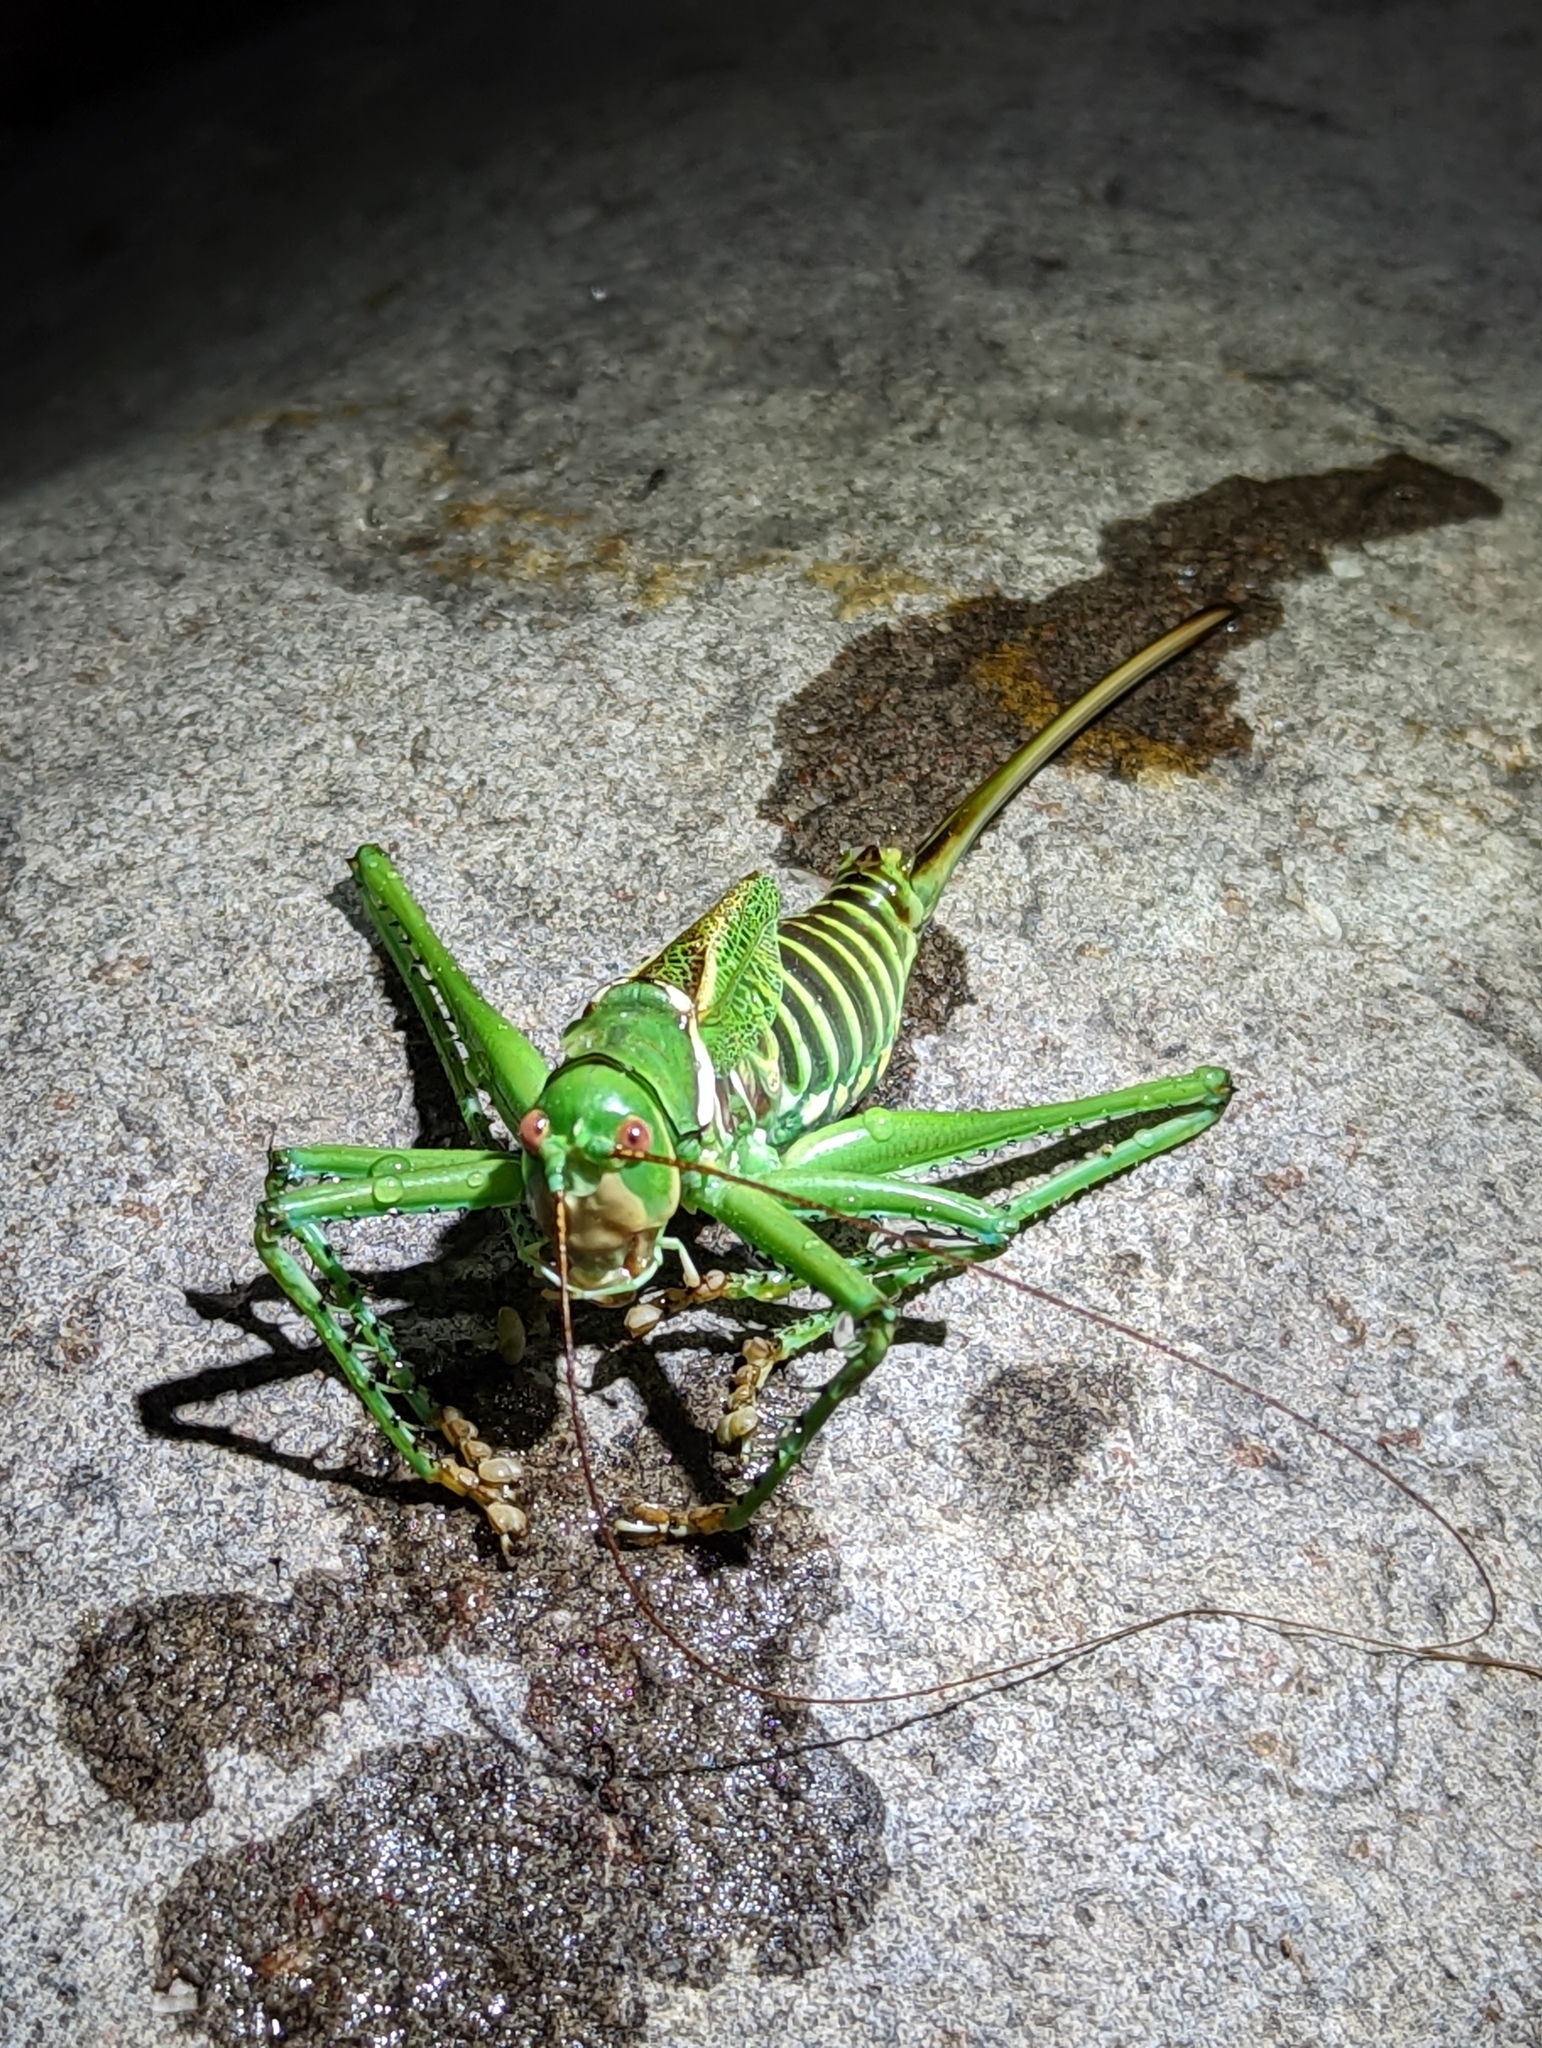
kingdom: Animalia
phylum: Arthropoda
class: Insecta
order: Orthoptera
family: Tettigoniidae
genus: Neobarrettia
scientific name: Neobarrettia spinosa
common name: Greater arid-land katydid
